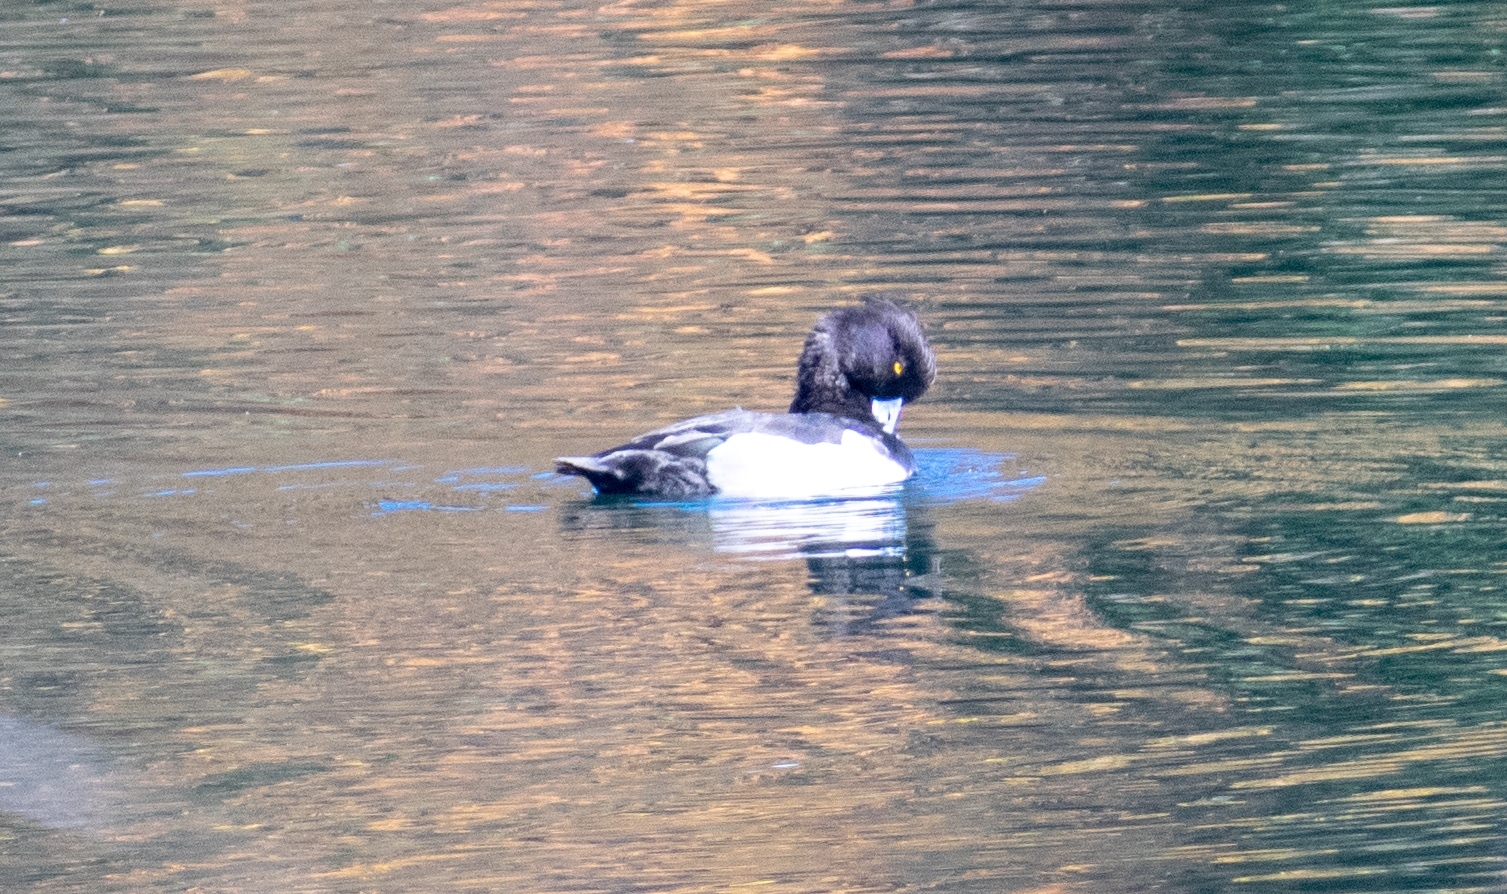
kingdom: Animalia
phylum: Chordata
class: Aves
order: Anseriformes
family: Anatidae
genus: Aythya
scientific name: Aythya fuligula
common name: Tufted duck
